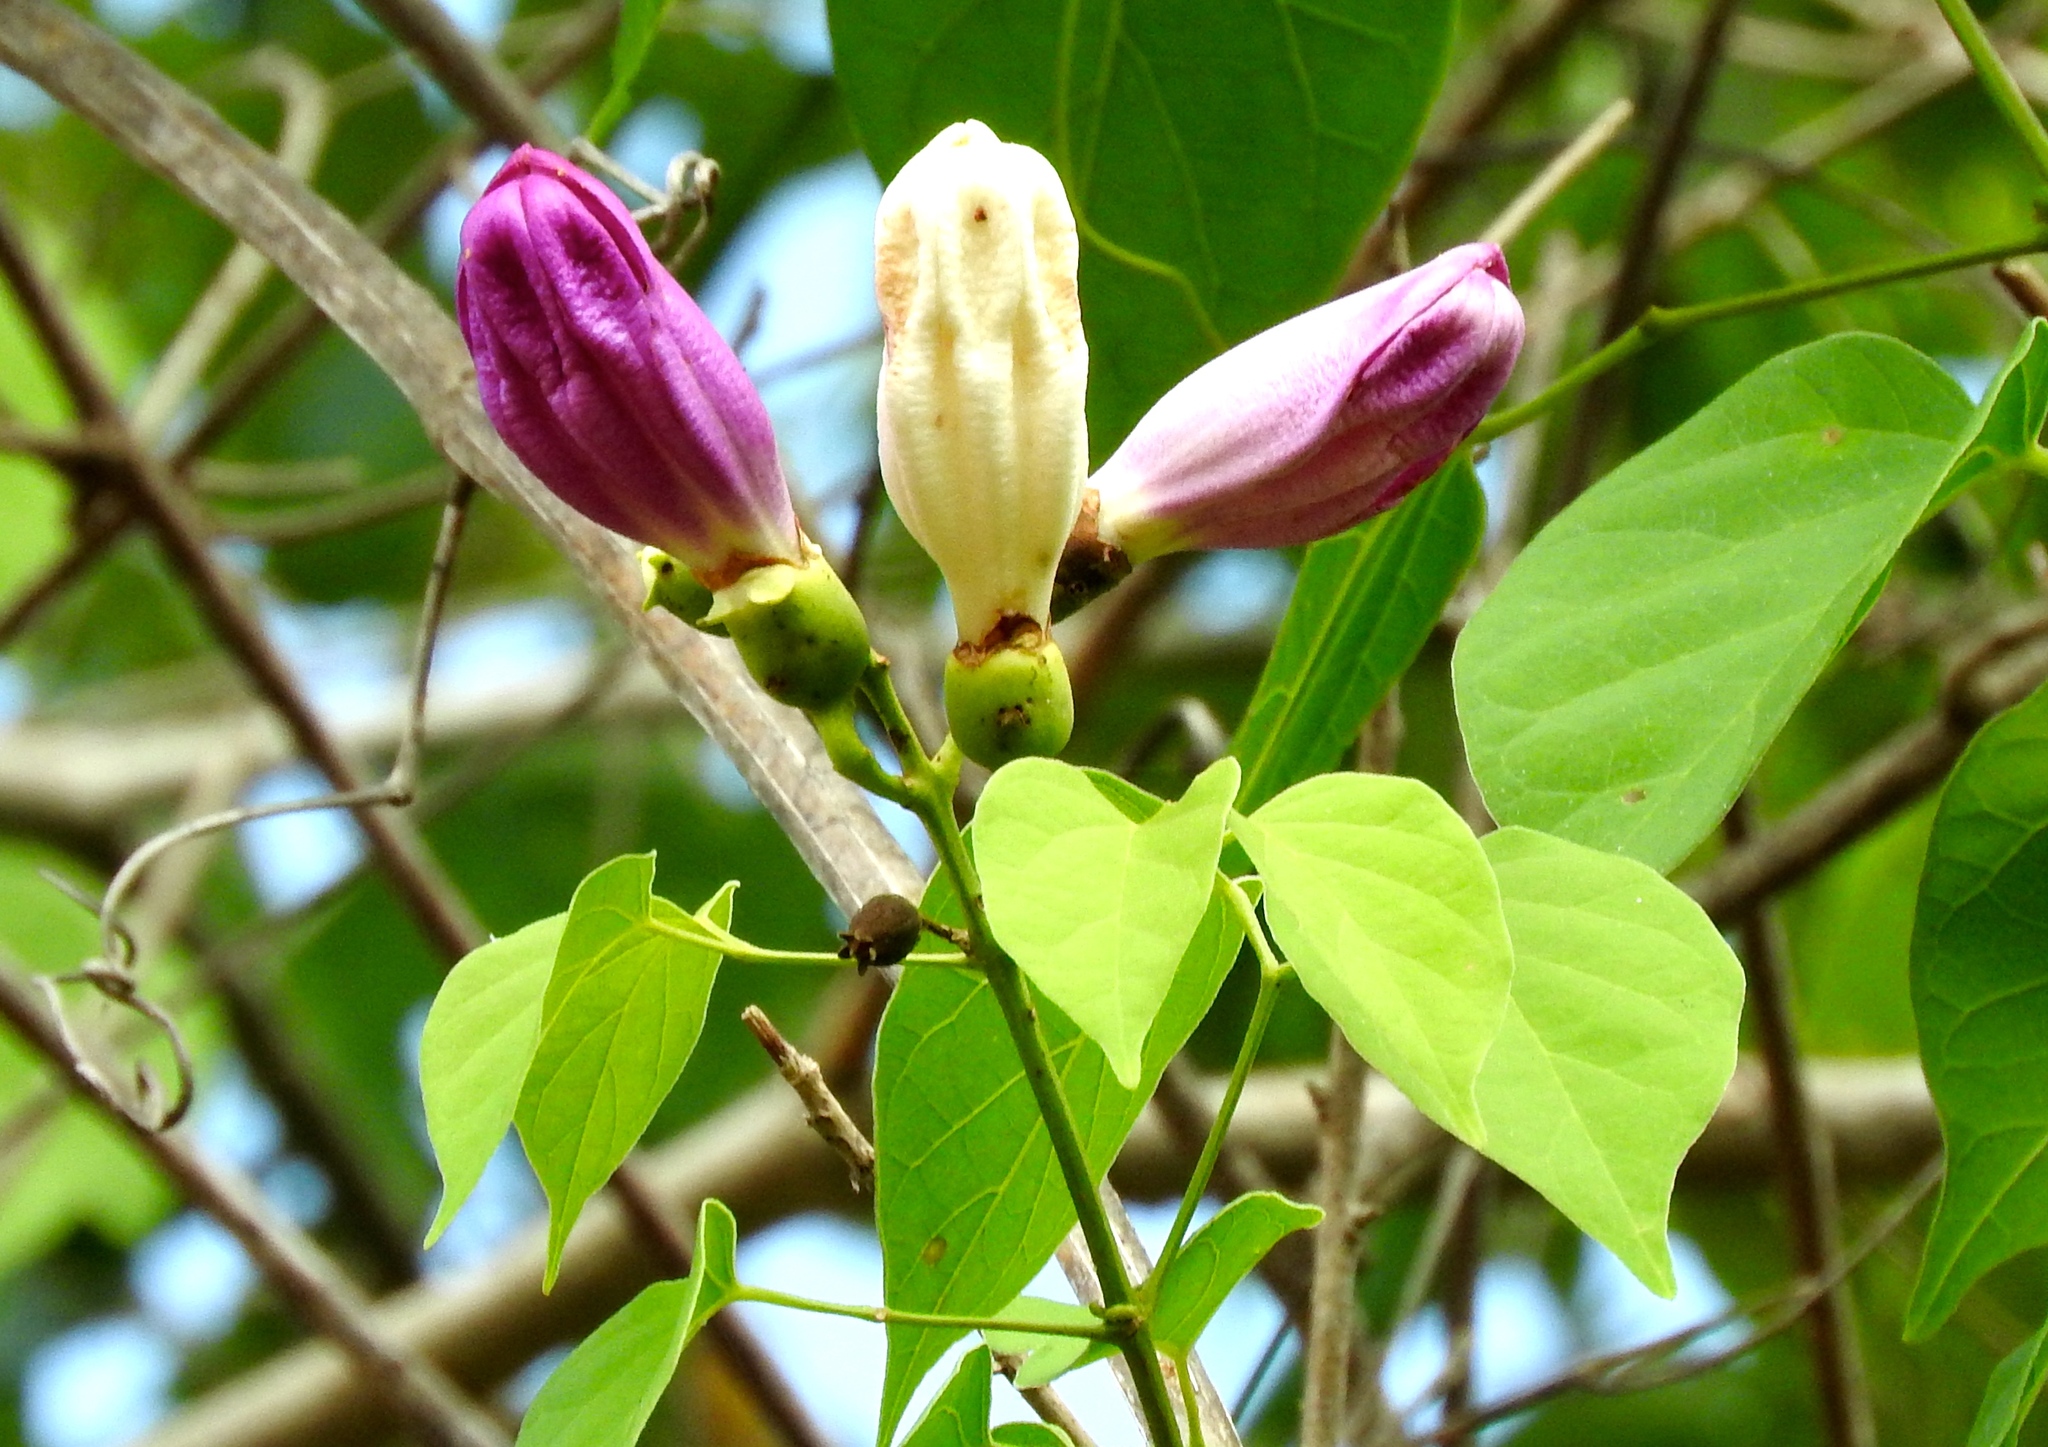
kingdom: Plantae
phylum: Tracheophyta
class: Magnoliopsida
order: Lamiales
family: Bignoniaceae
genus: Amphilophium
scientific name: Amphilophium paniculatum
